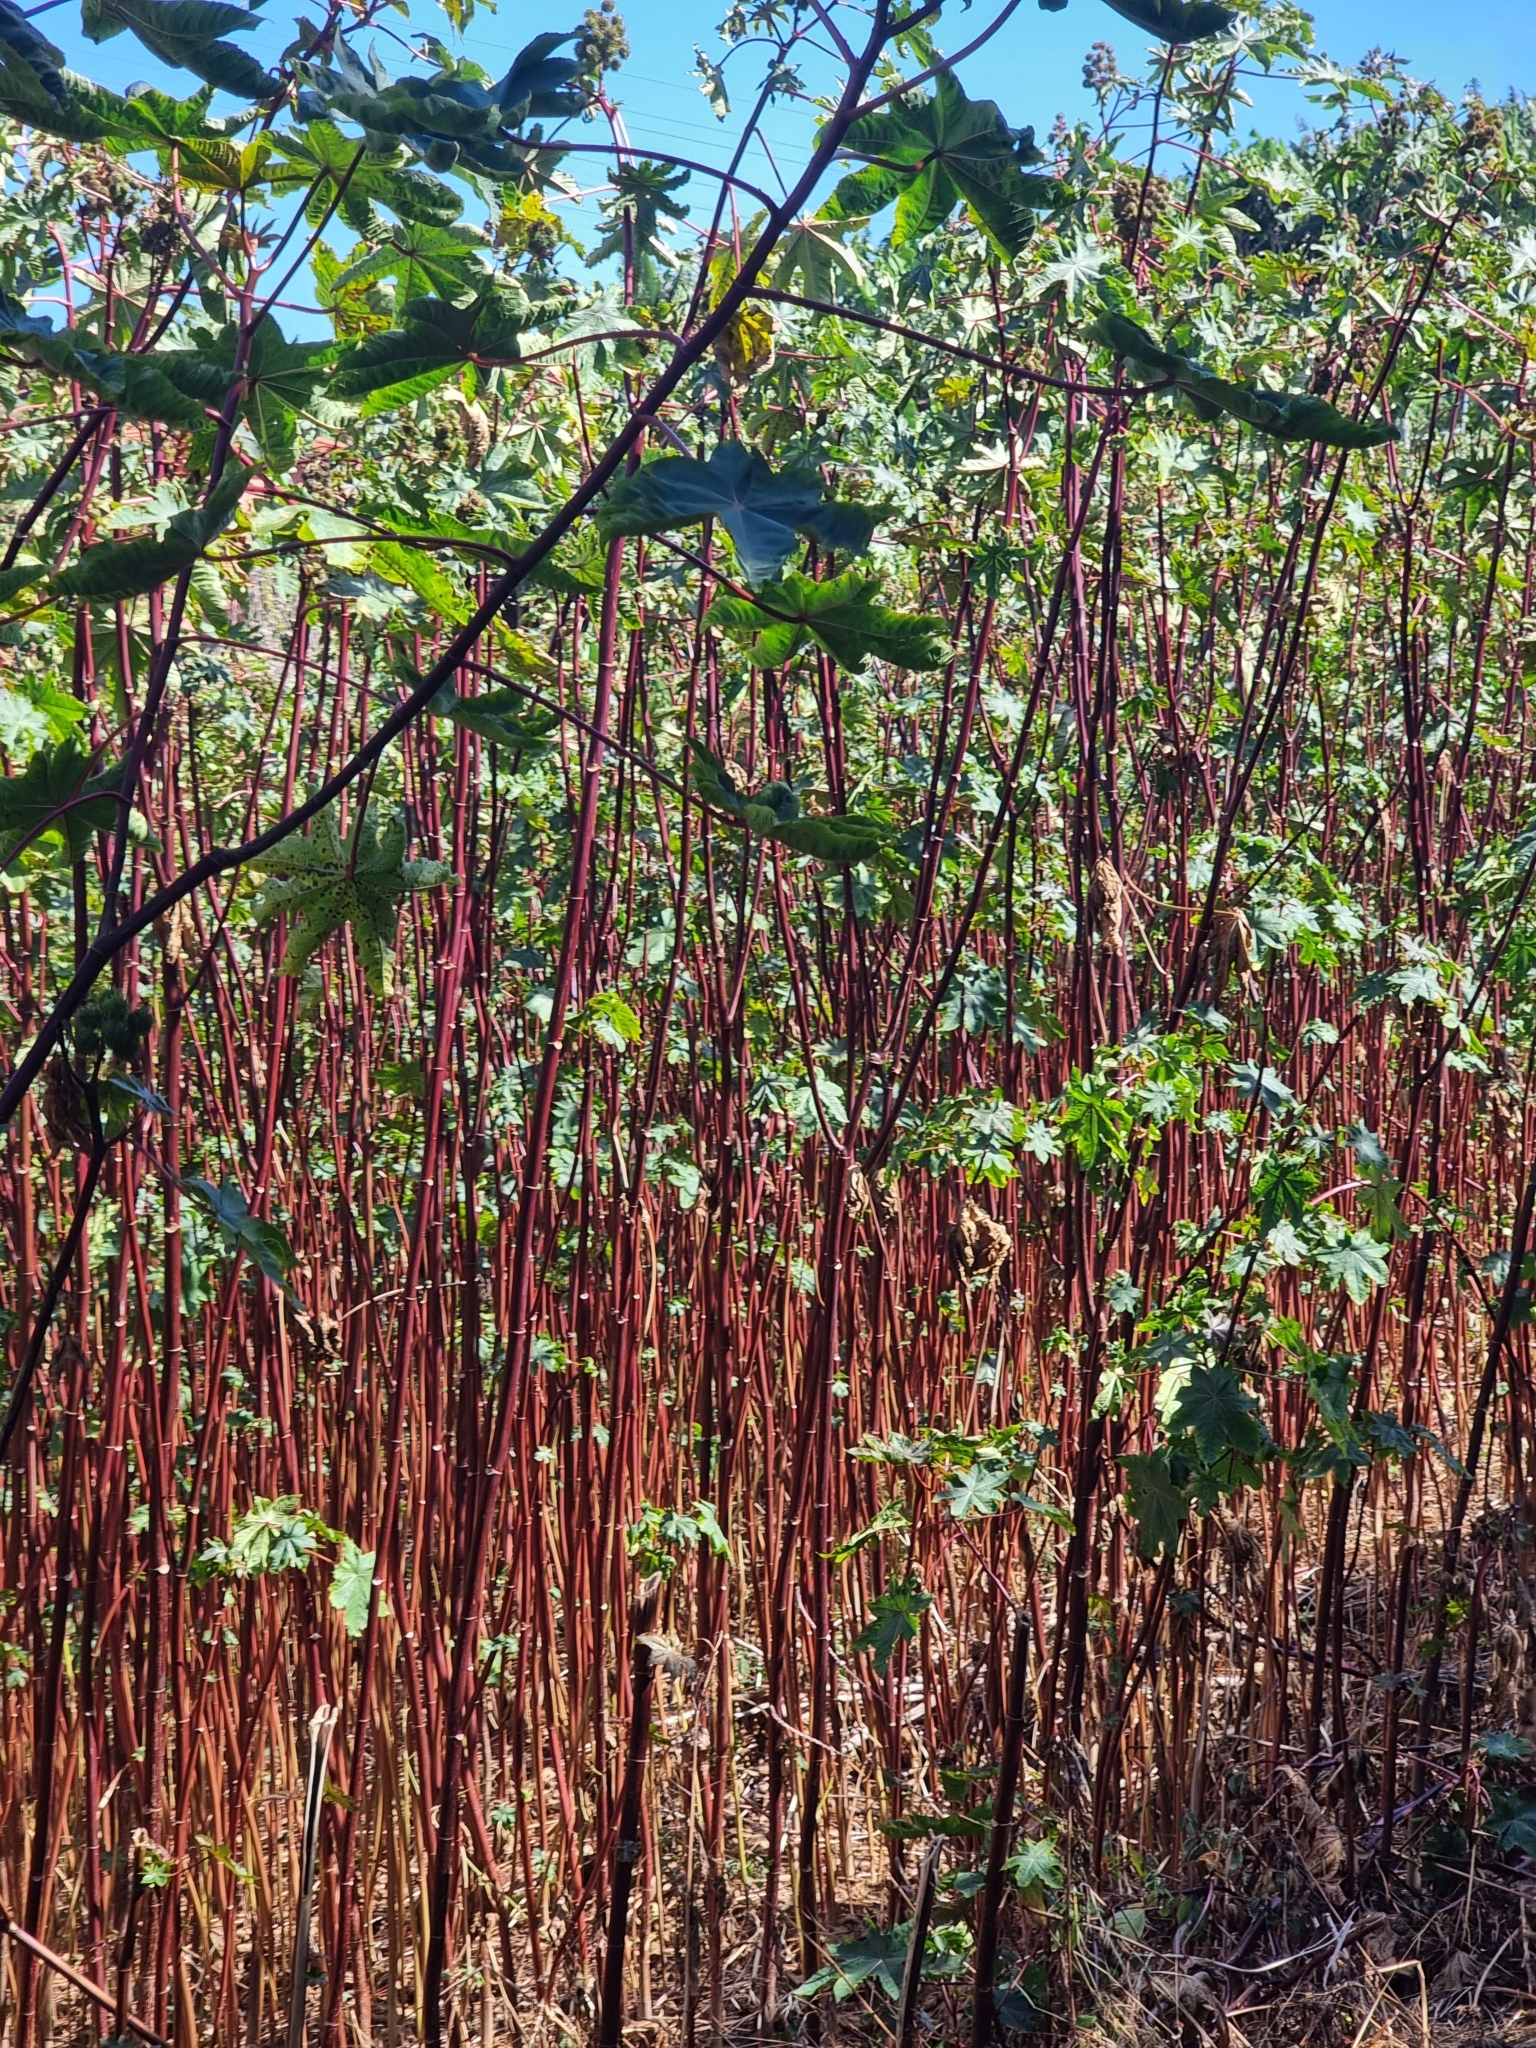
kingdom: Plantae
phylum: Tracheophyta
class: Magnoliopsida
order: Malpighiales
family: Euphorbiaceae
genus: Ricinus
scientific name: Ricinus communis
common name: Castor-oil-plant
